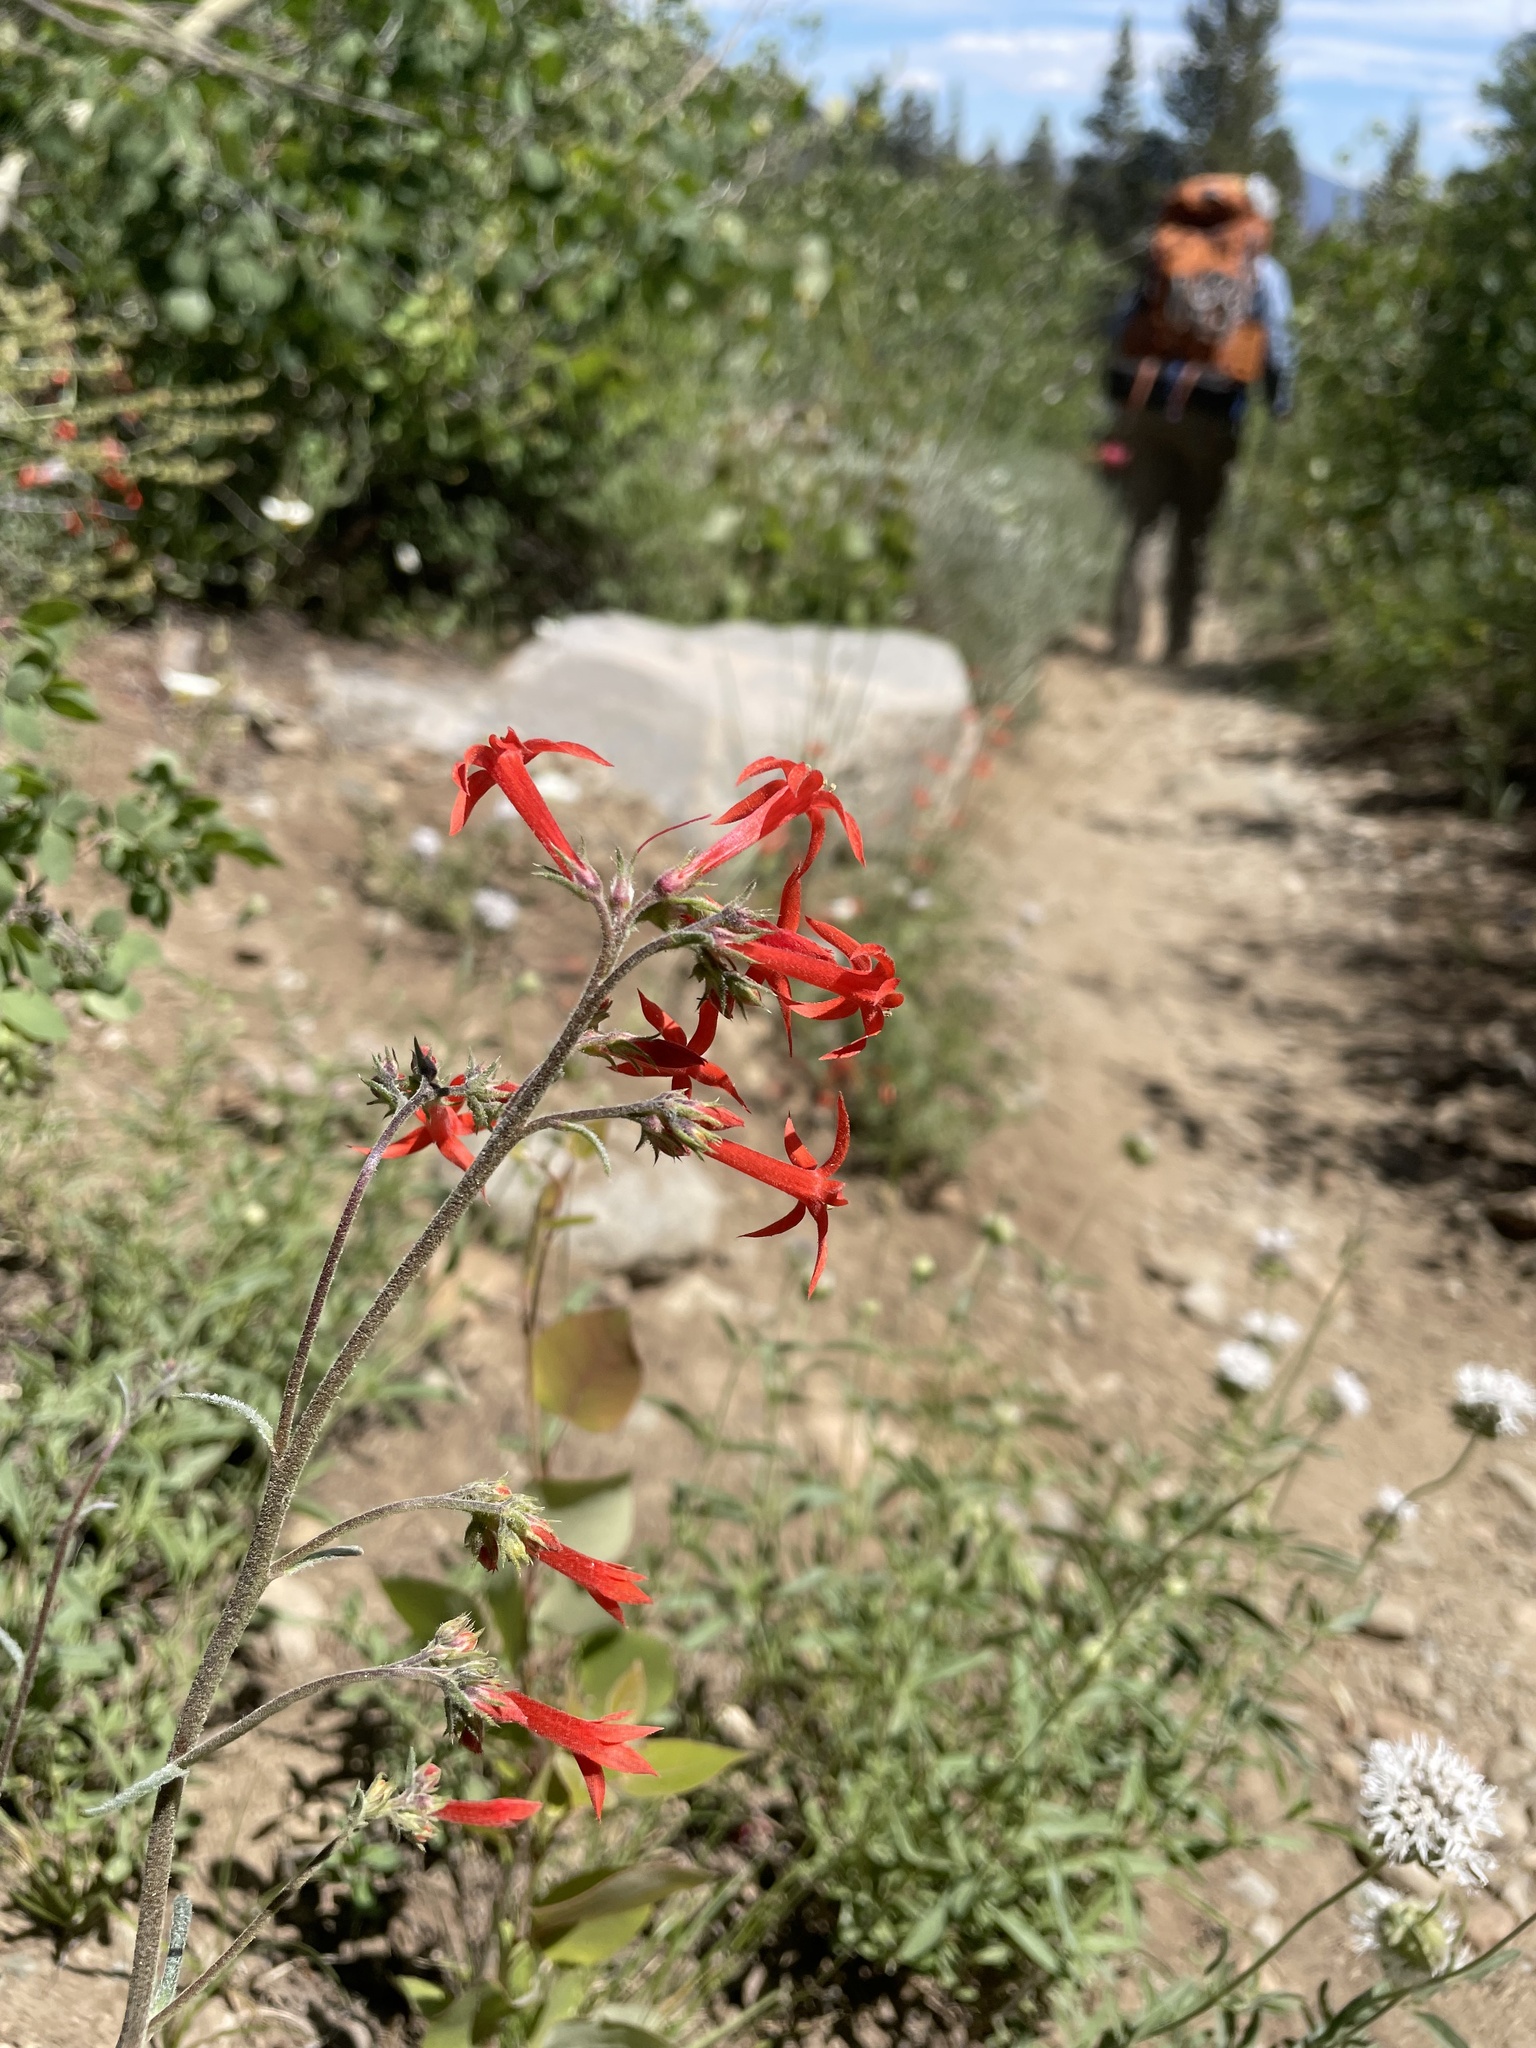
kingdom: Plantae
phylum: Tracheophyta
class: Magnoliopsida
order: Ericales
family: Polemoniaceae
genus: Ipomopsis
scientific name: Ipomopsis aggregata
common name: Scarlet gilia
